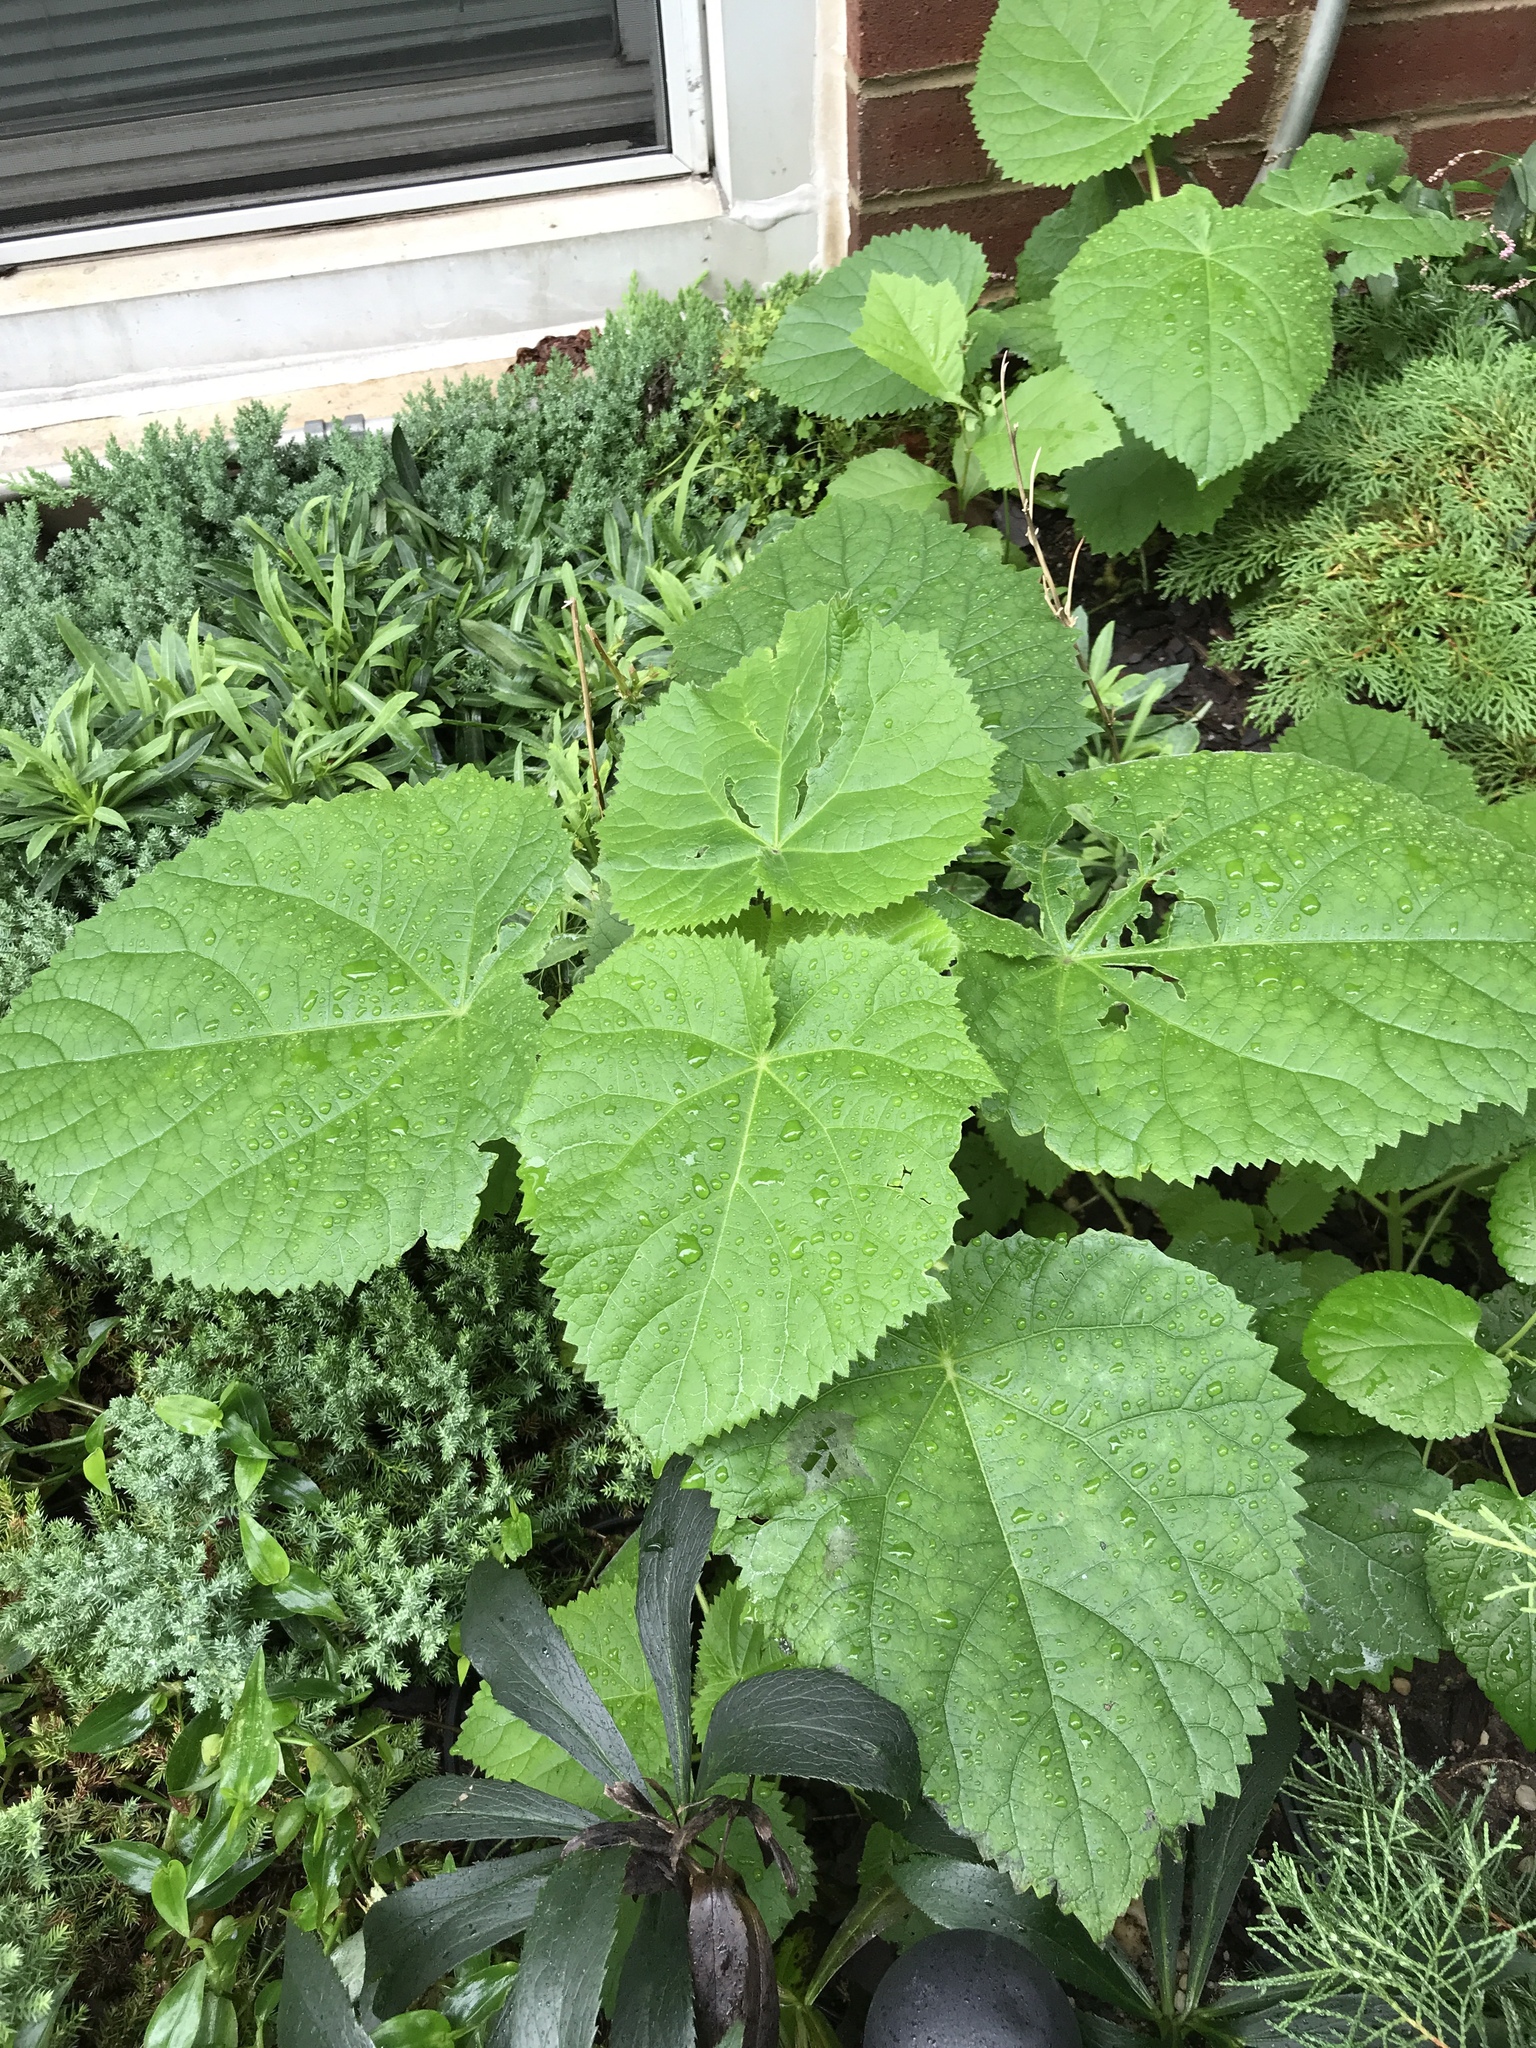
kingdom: Plantae
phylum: Tracheophyta
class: Magnoliopsida
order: Lamiales
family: Paulowniaceae
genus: Paulownia
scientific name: Paulownia tomentosa
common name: Foxglove-tree
